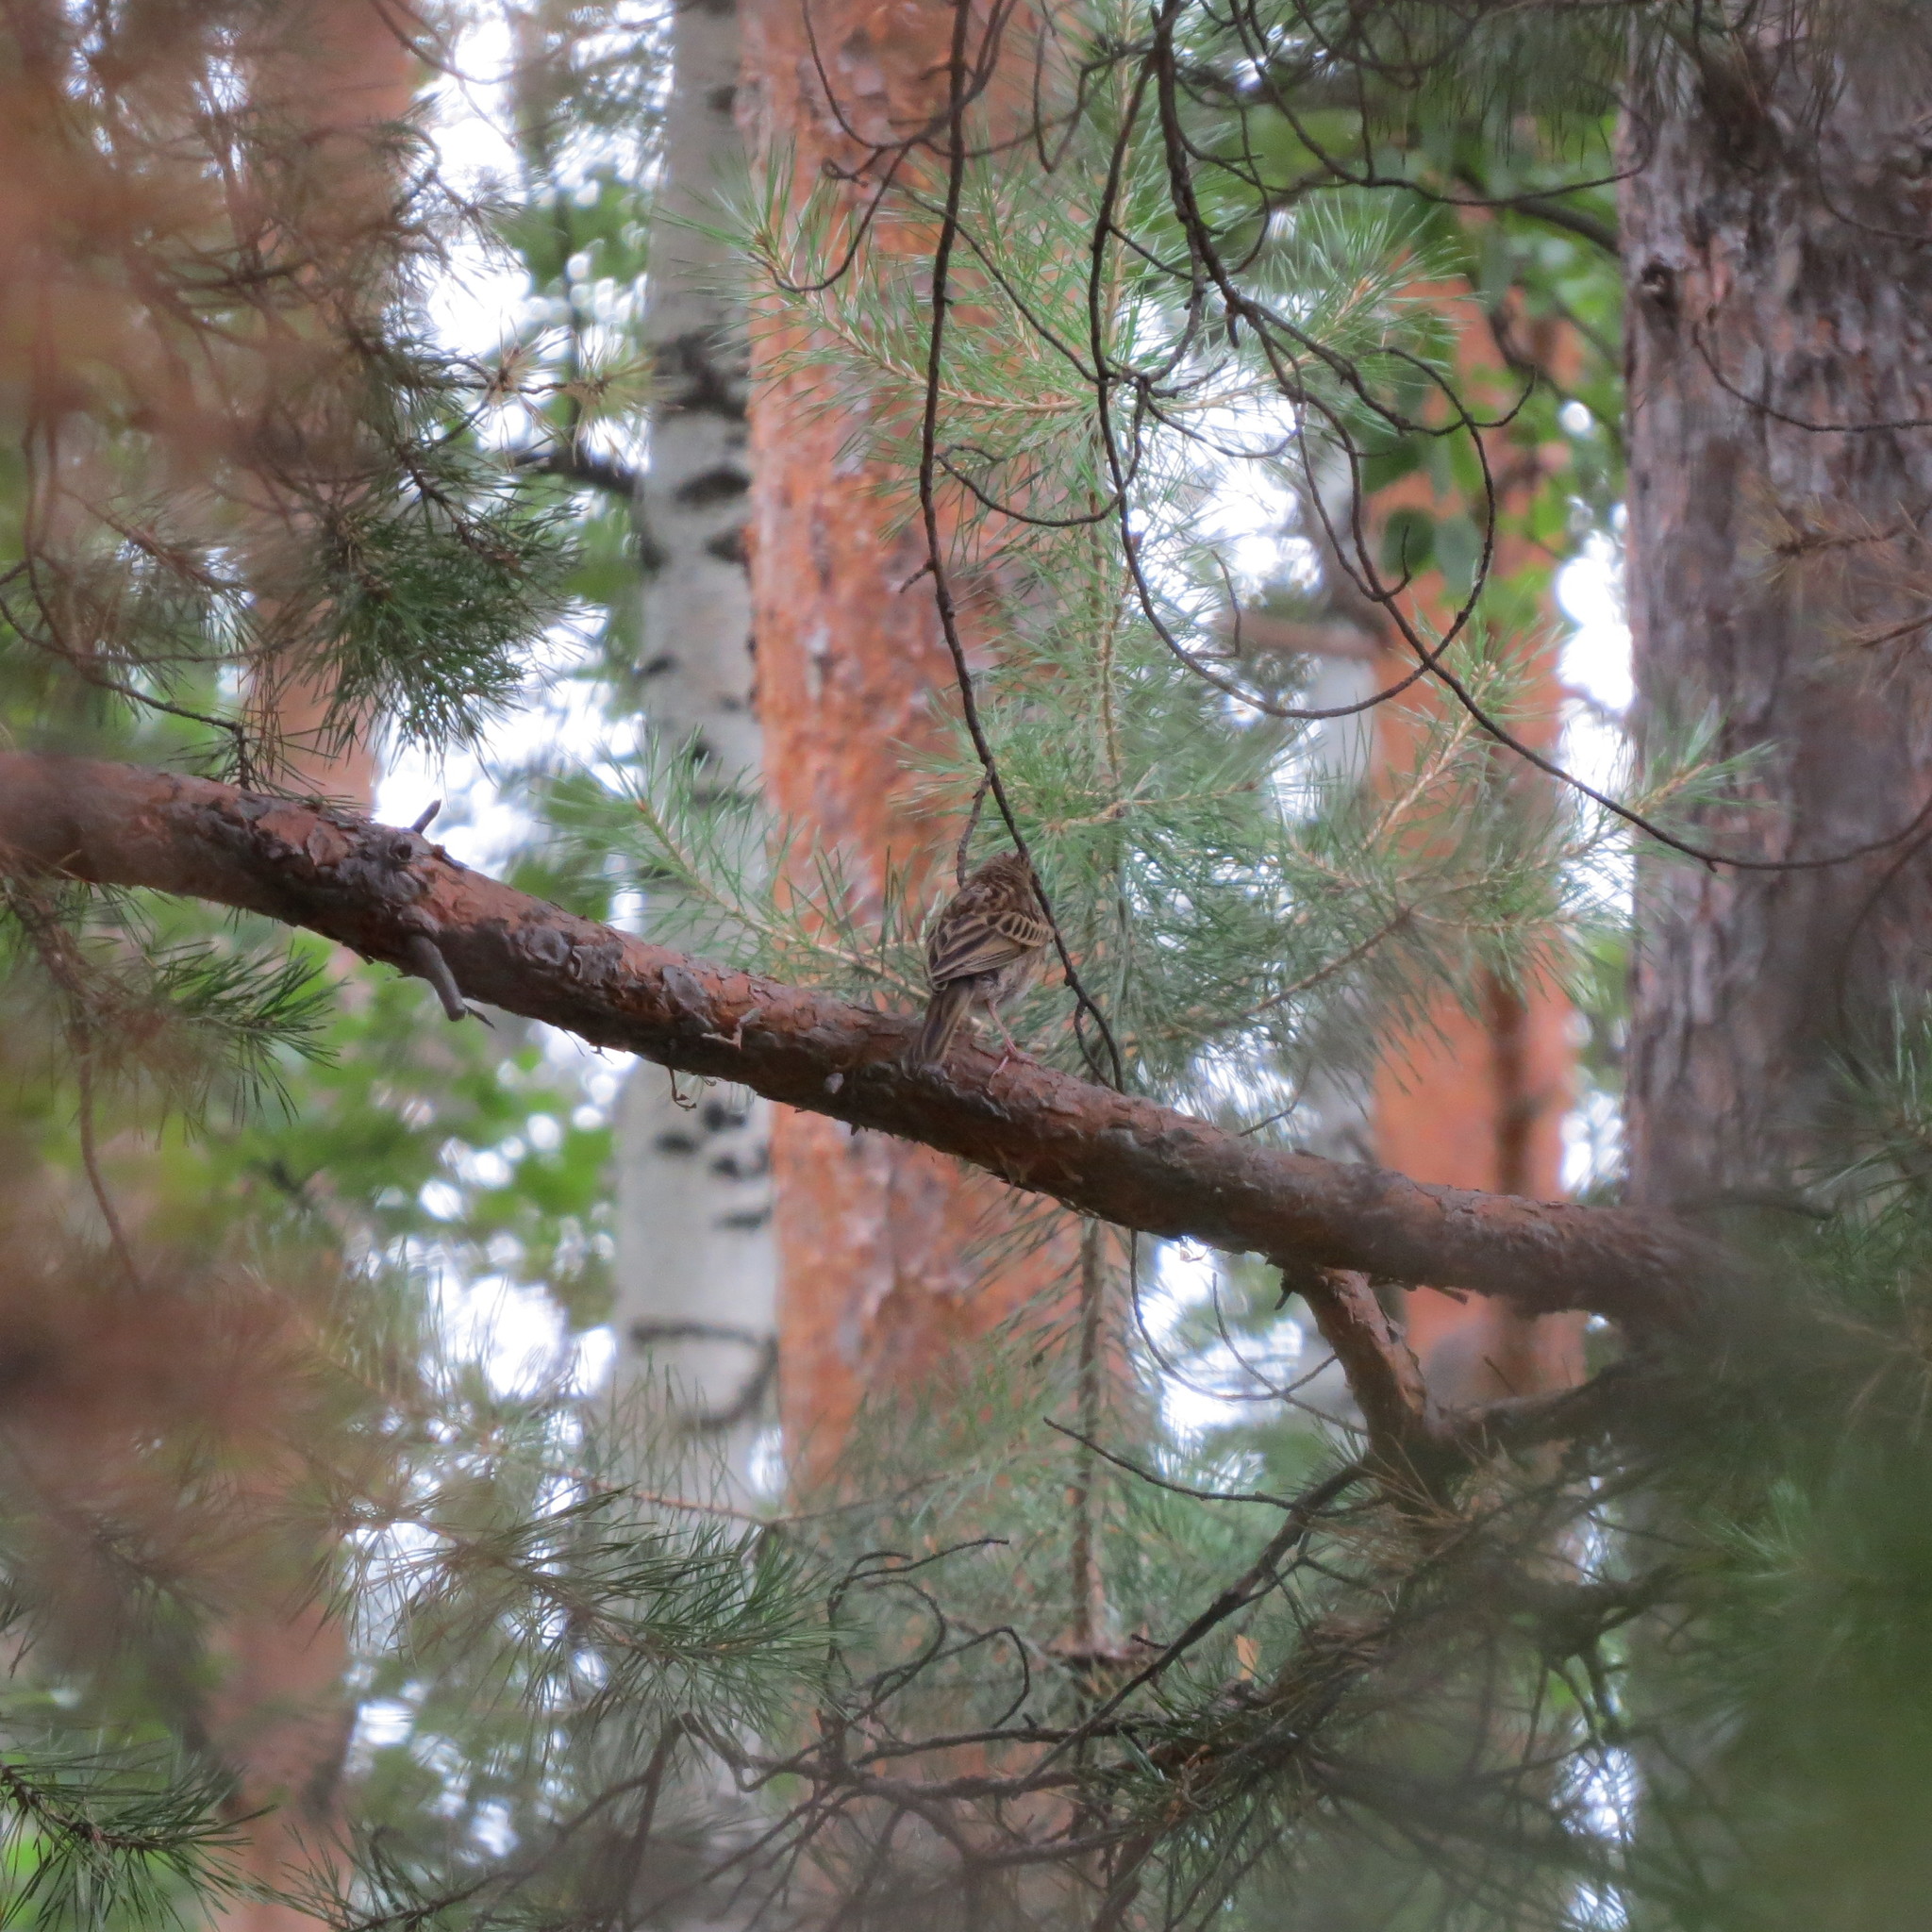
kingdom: Animalia
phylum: Chordata
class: Aves
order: Passeriformes
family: Motacillidae
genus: Anthus
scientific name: Anthus trivialis
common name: Tree pipit
